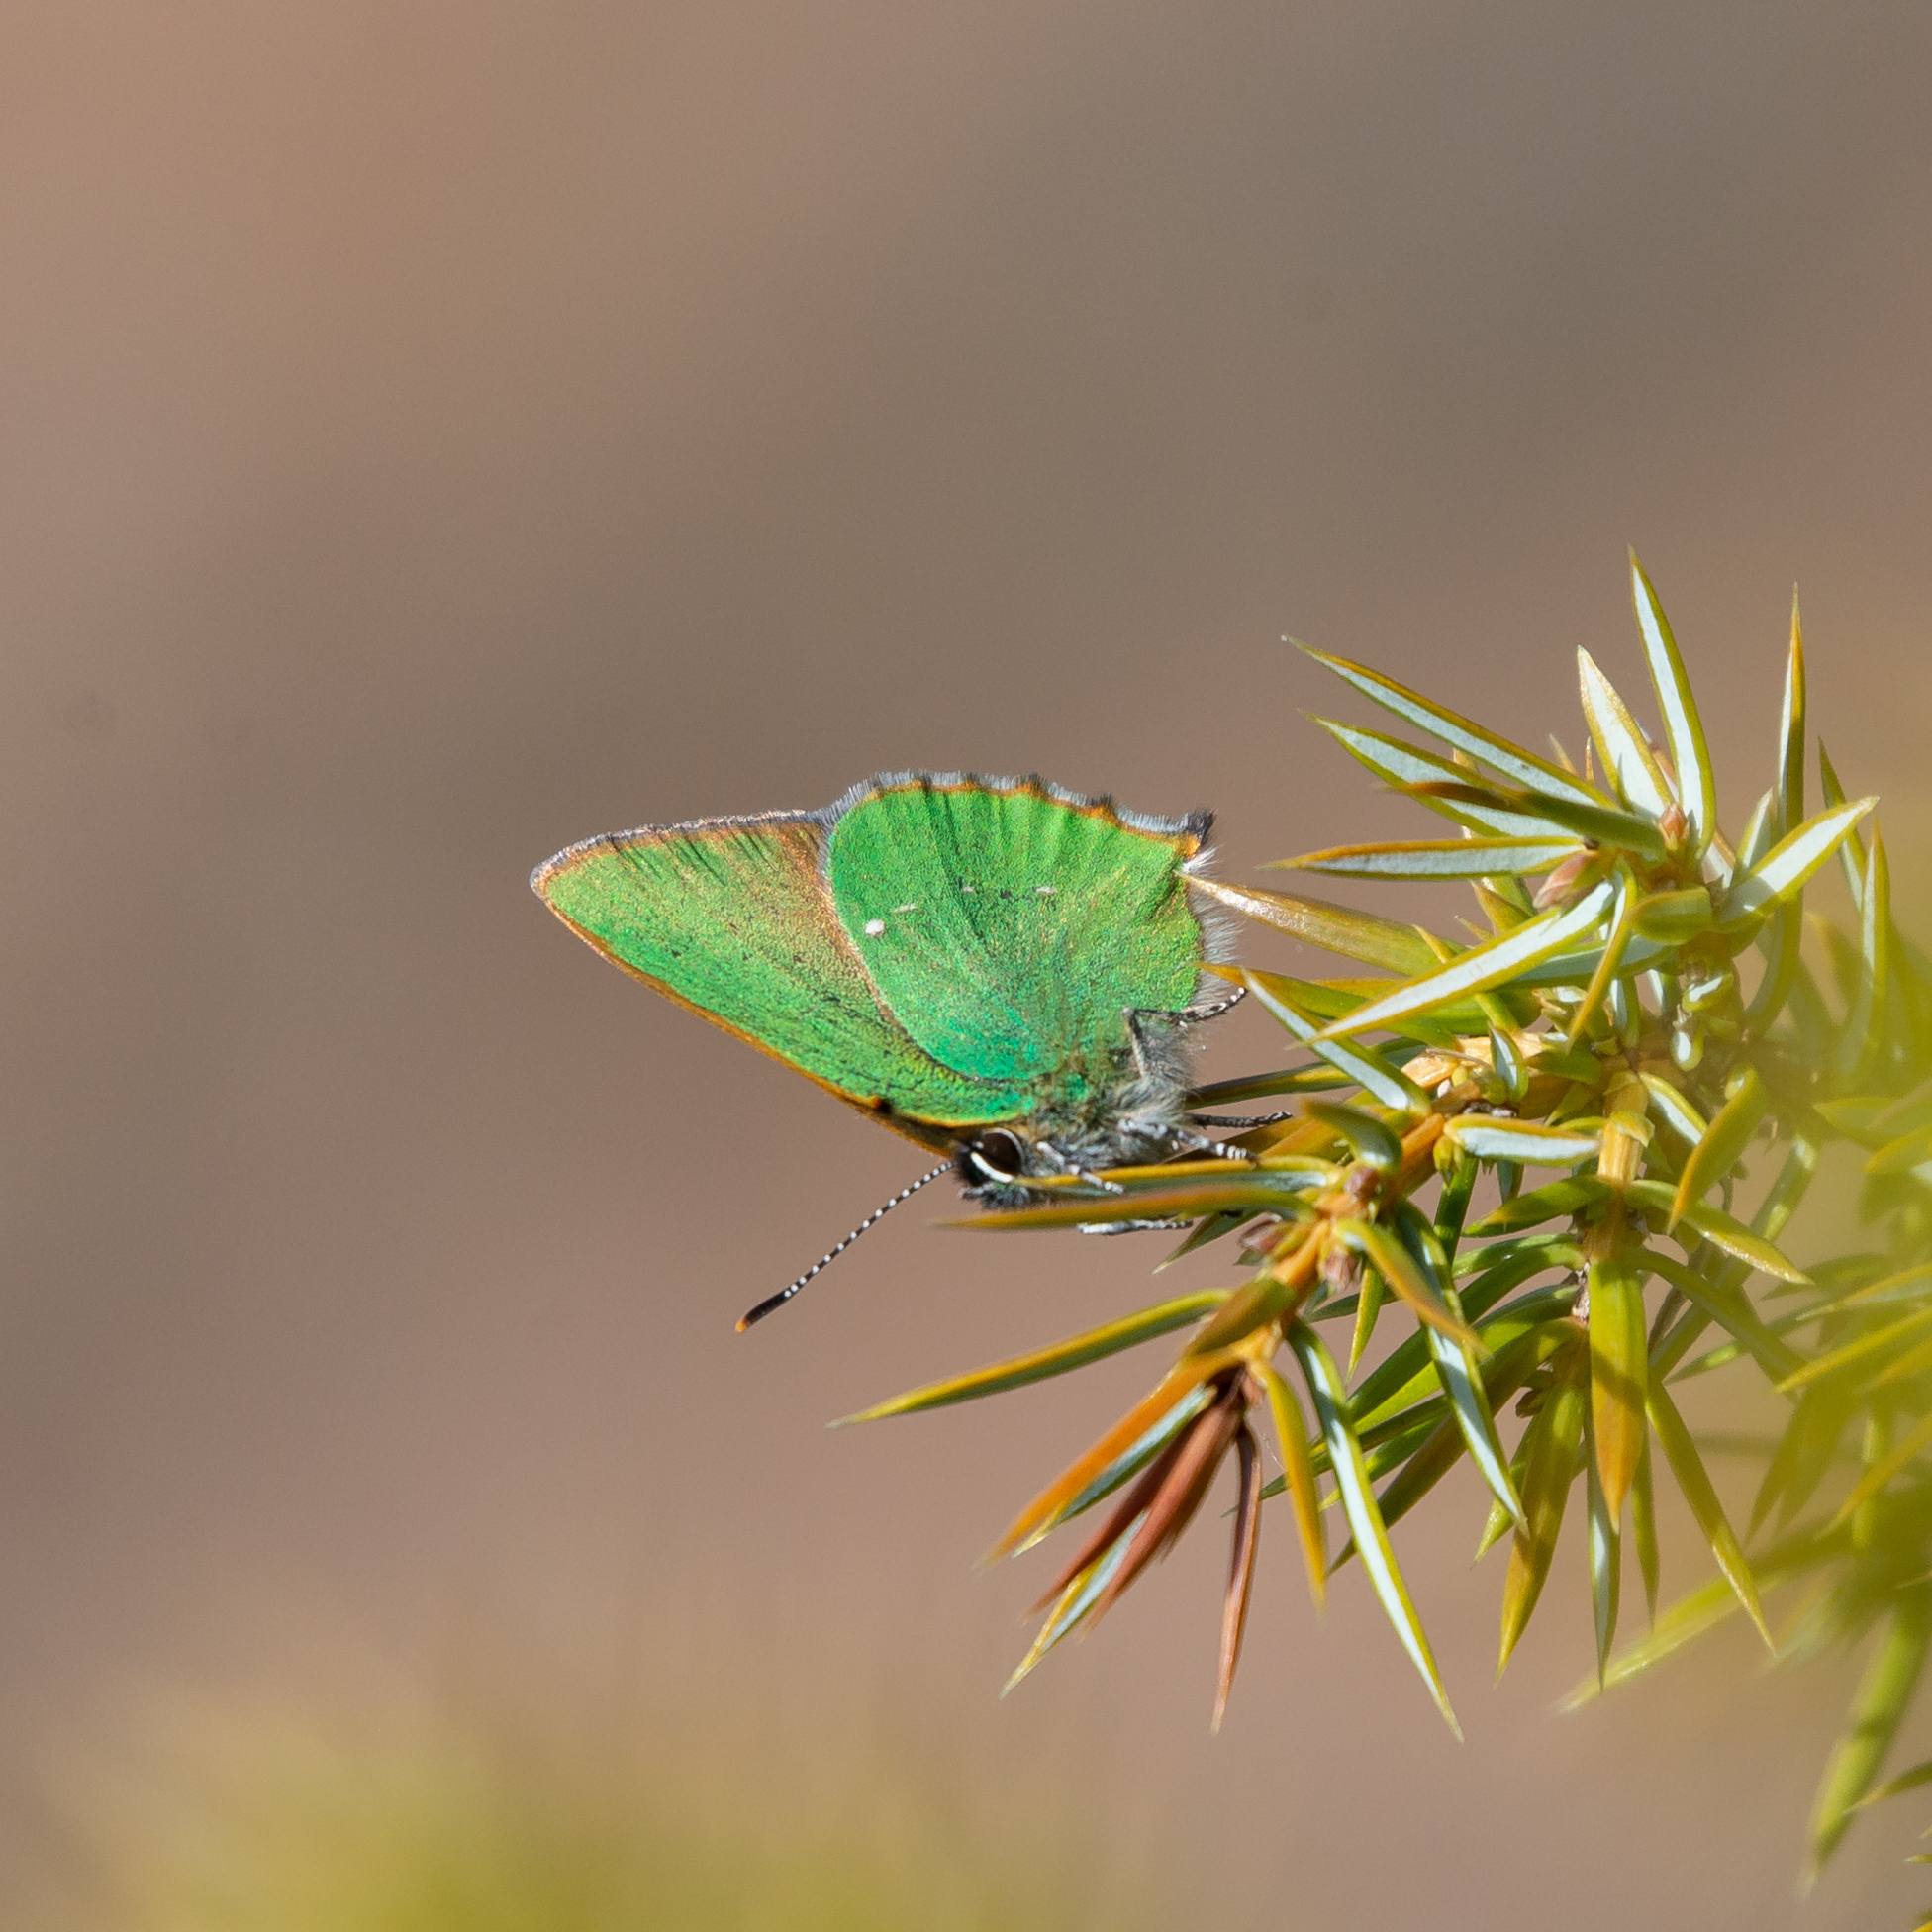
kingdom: Animalia
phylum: Arthropoda
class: Insecta
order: Lepidoptera
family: Lycaenidae
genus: Callophrys
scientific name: Callophrys rubi
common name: Green hairstreak
